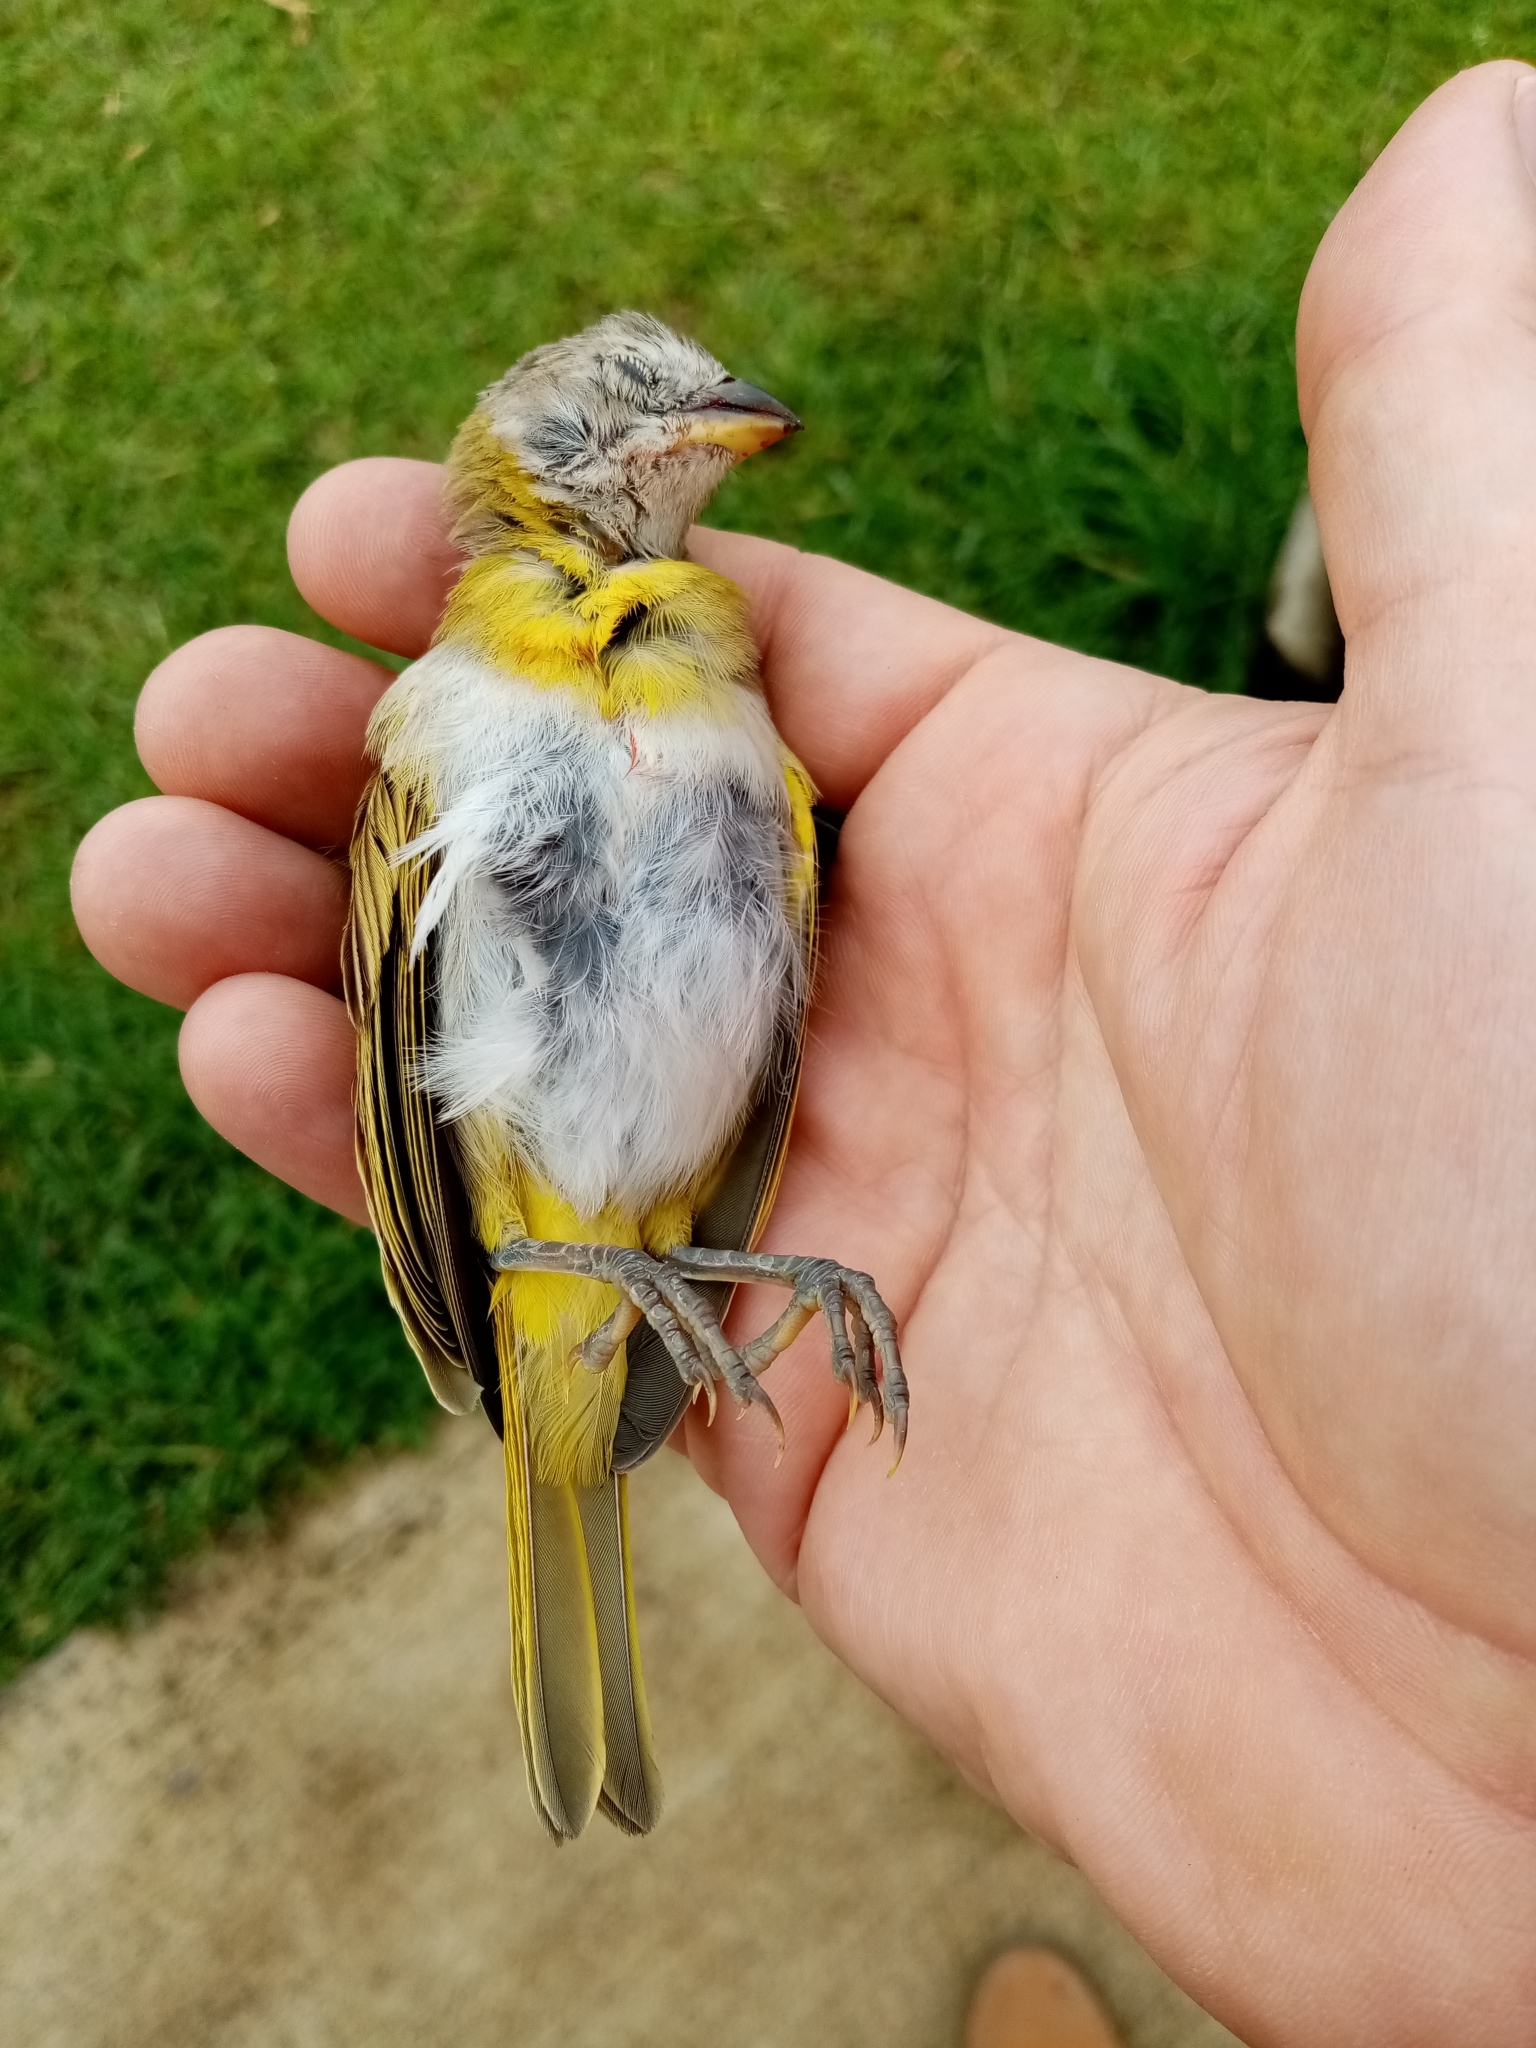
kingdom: Animalia
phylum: Chordata
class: Aves
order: Passeriformes
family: Thraupidae
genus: Sicalis
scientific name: Sicalis flaveola
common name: Saffron finch
